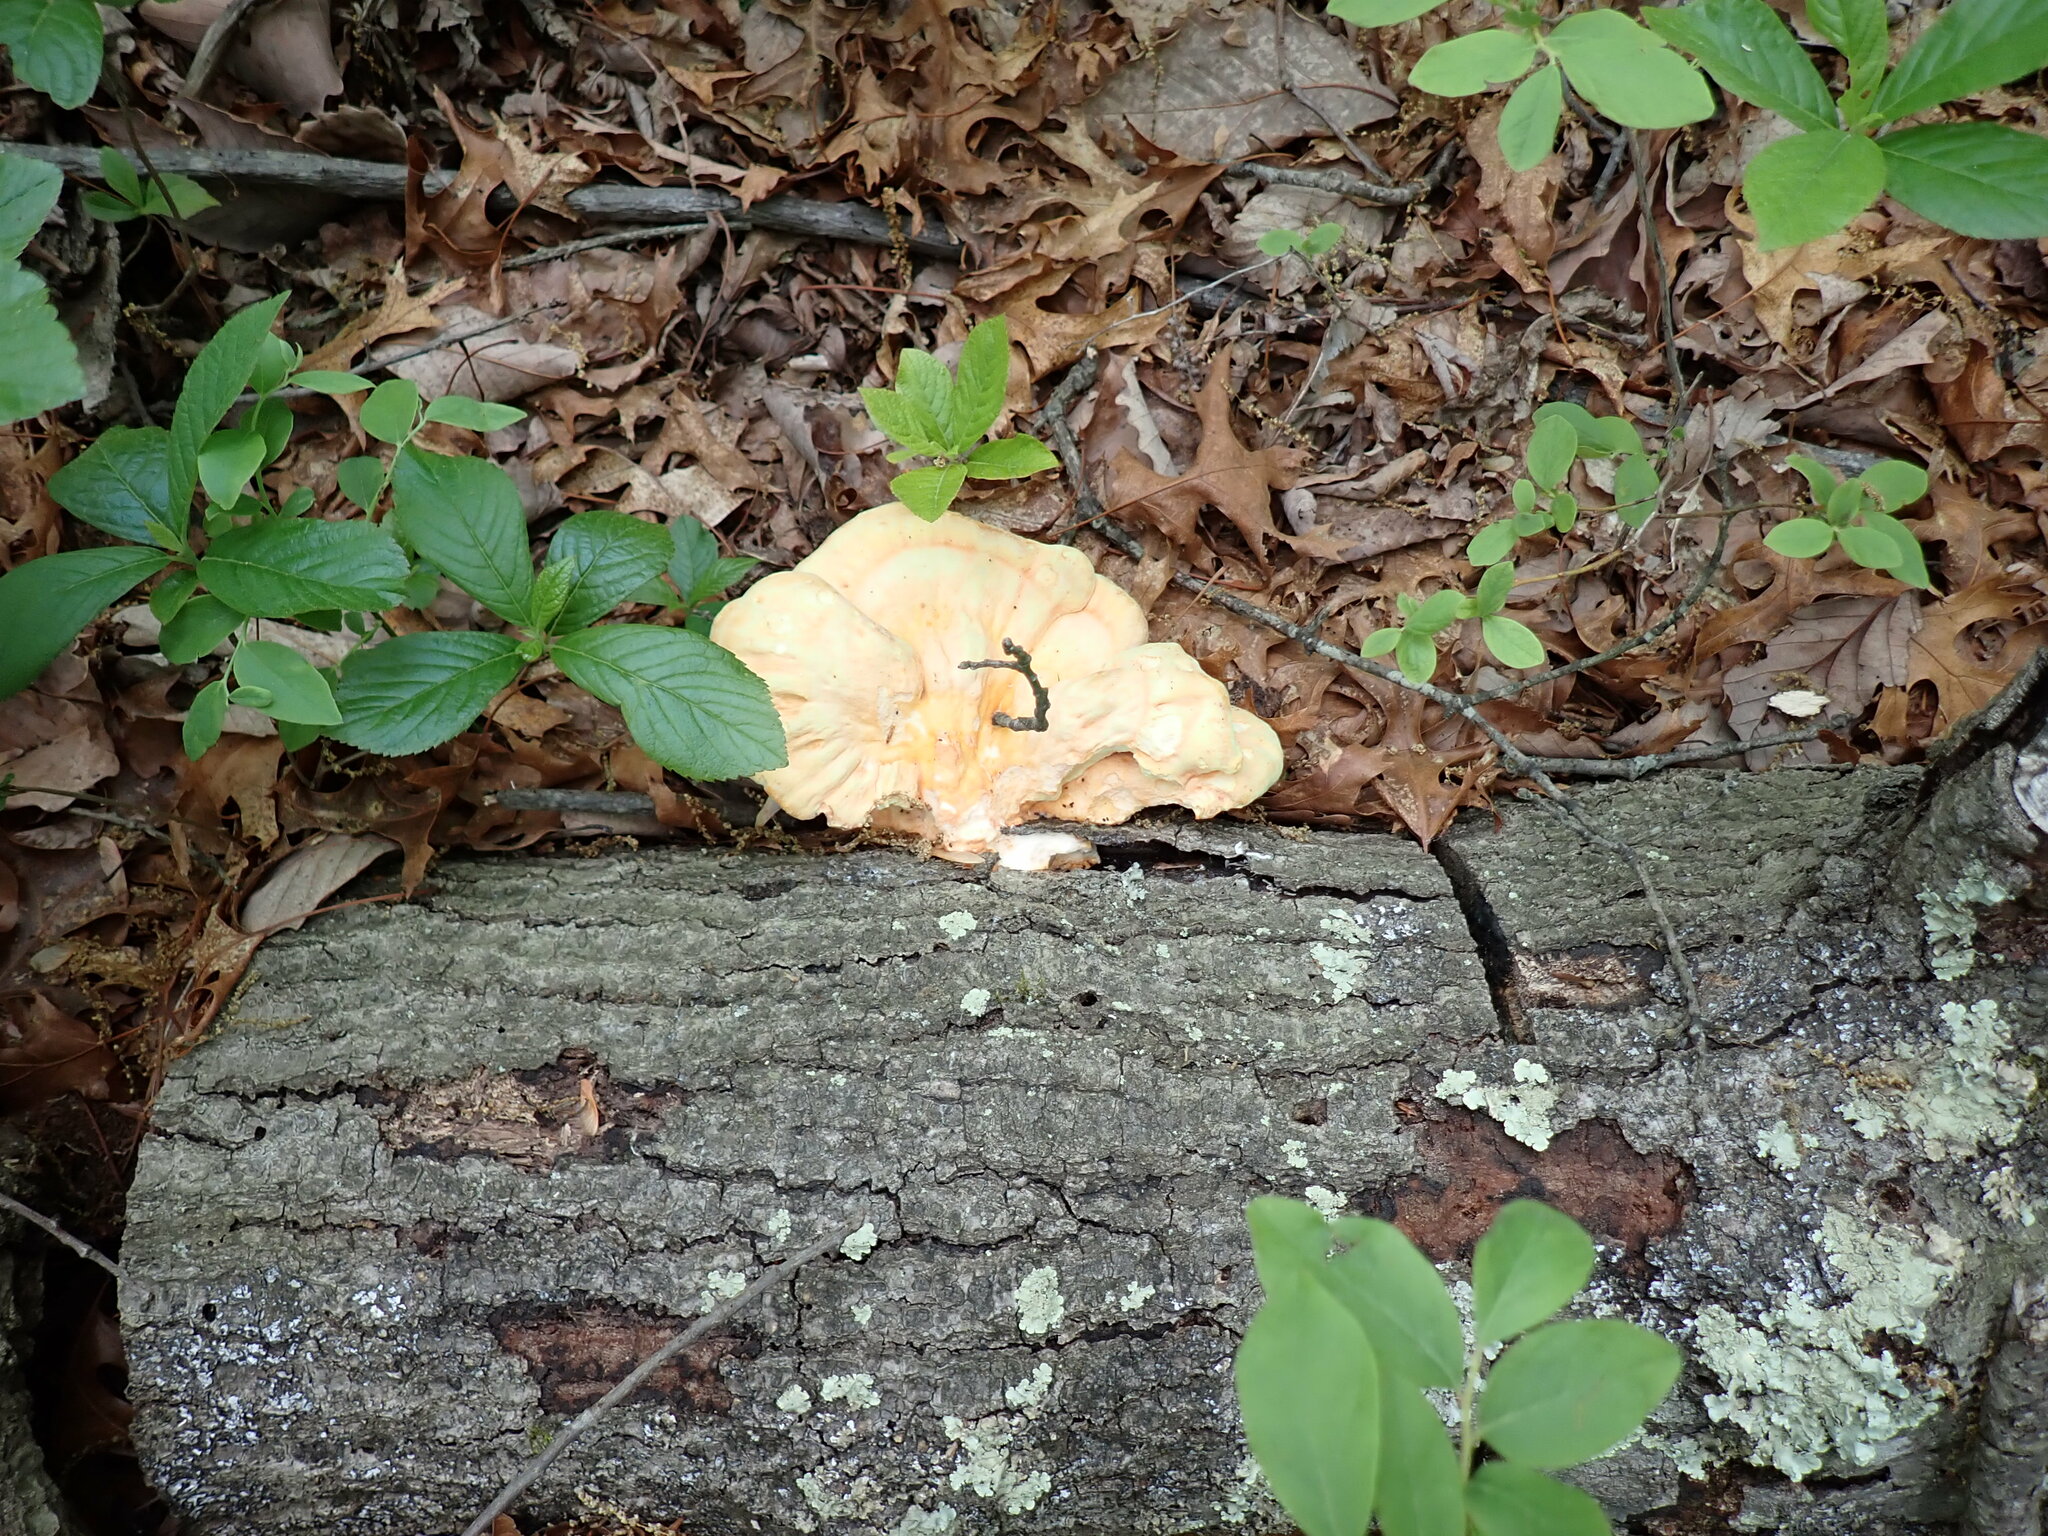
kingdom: Fungi
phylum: Basidiomycota
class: Agaricomycetes
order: Polyporales
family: Laetiporaceae
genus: Laetiporus
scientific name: Laetiporus sulphureus
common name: Chicken of the woods
